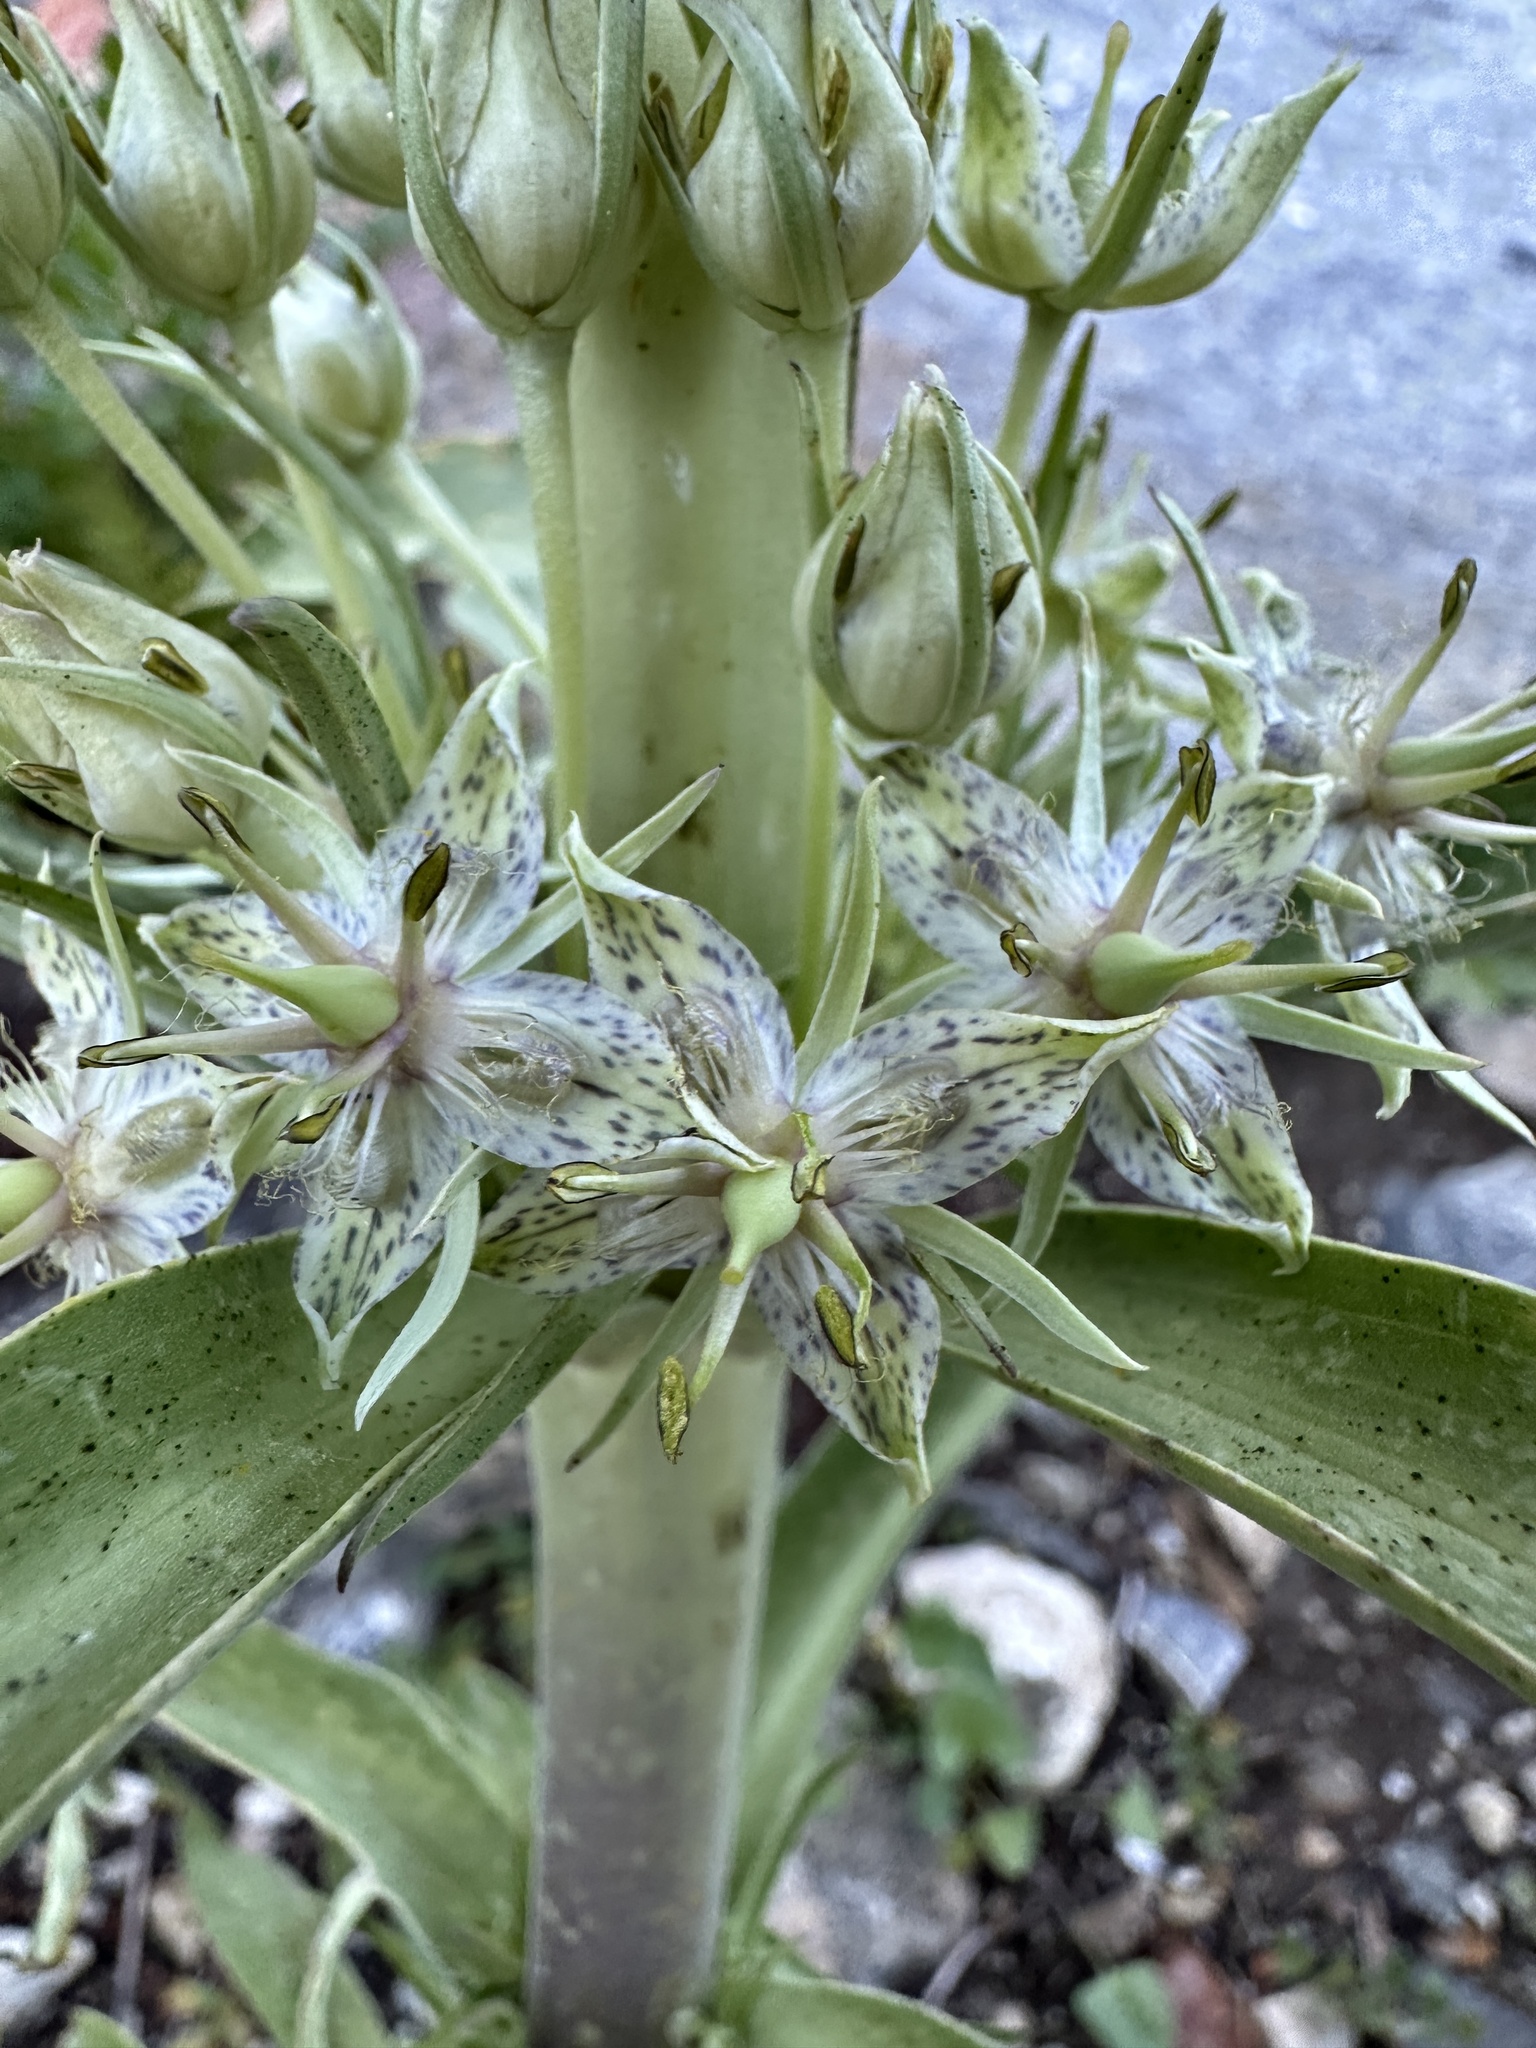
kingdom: Plantae
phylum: Tracheophyta
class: Magnoliopsida
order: Gentianales
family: Gentianaceae
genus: Frasera
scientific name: Frasera speciosa
